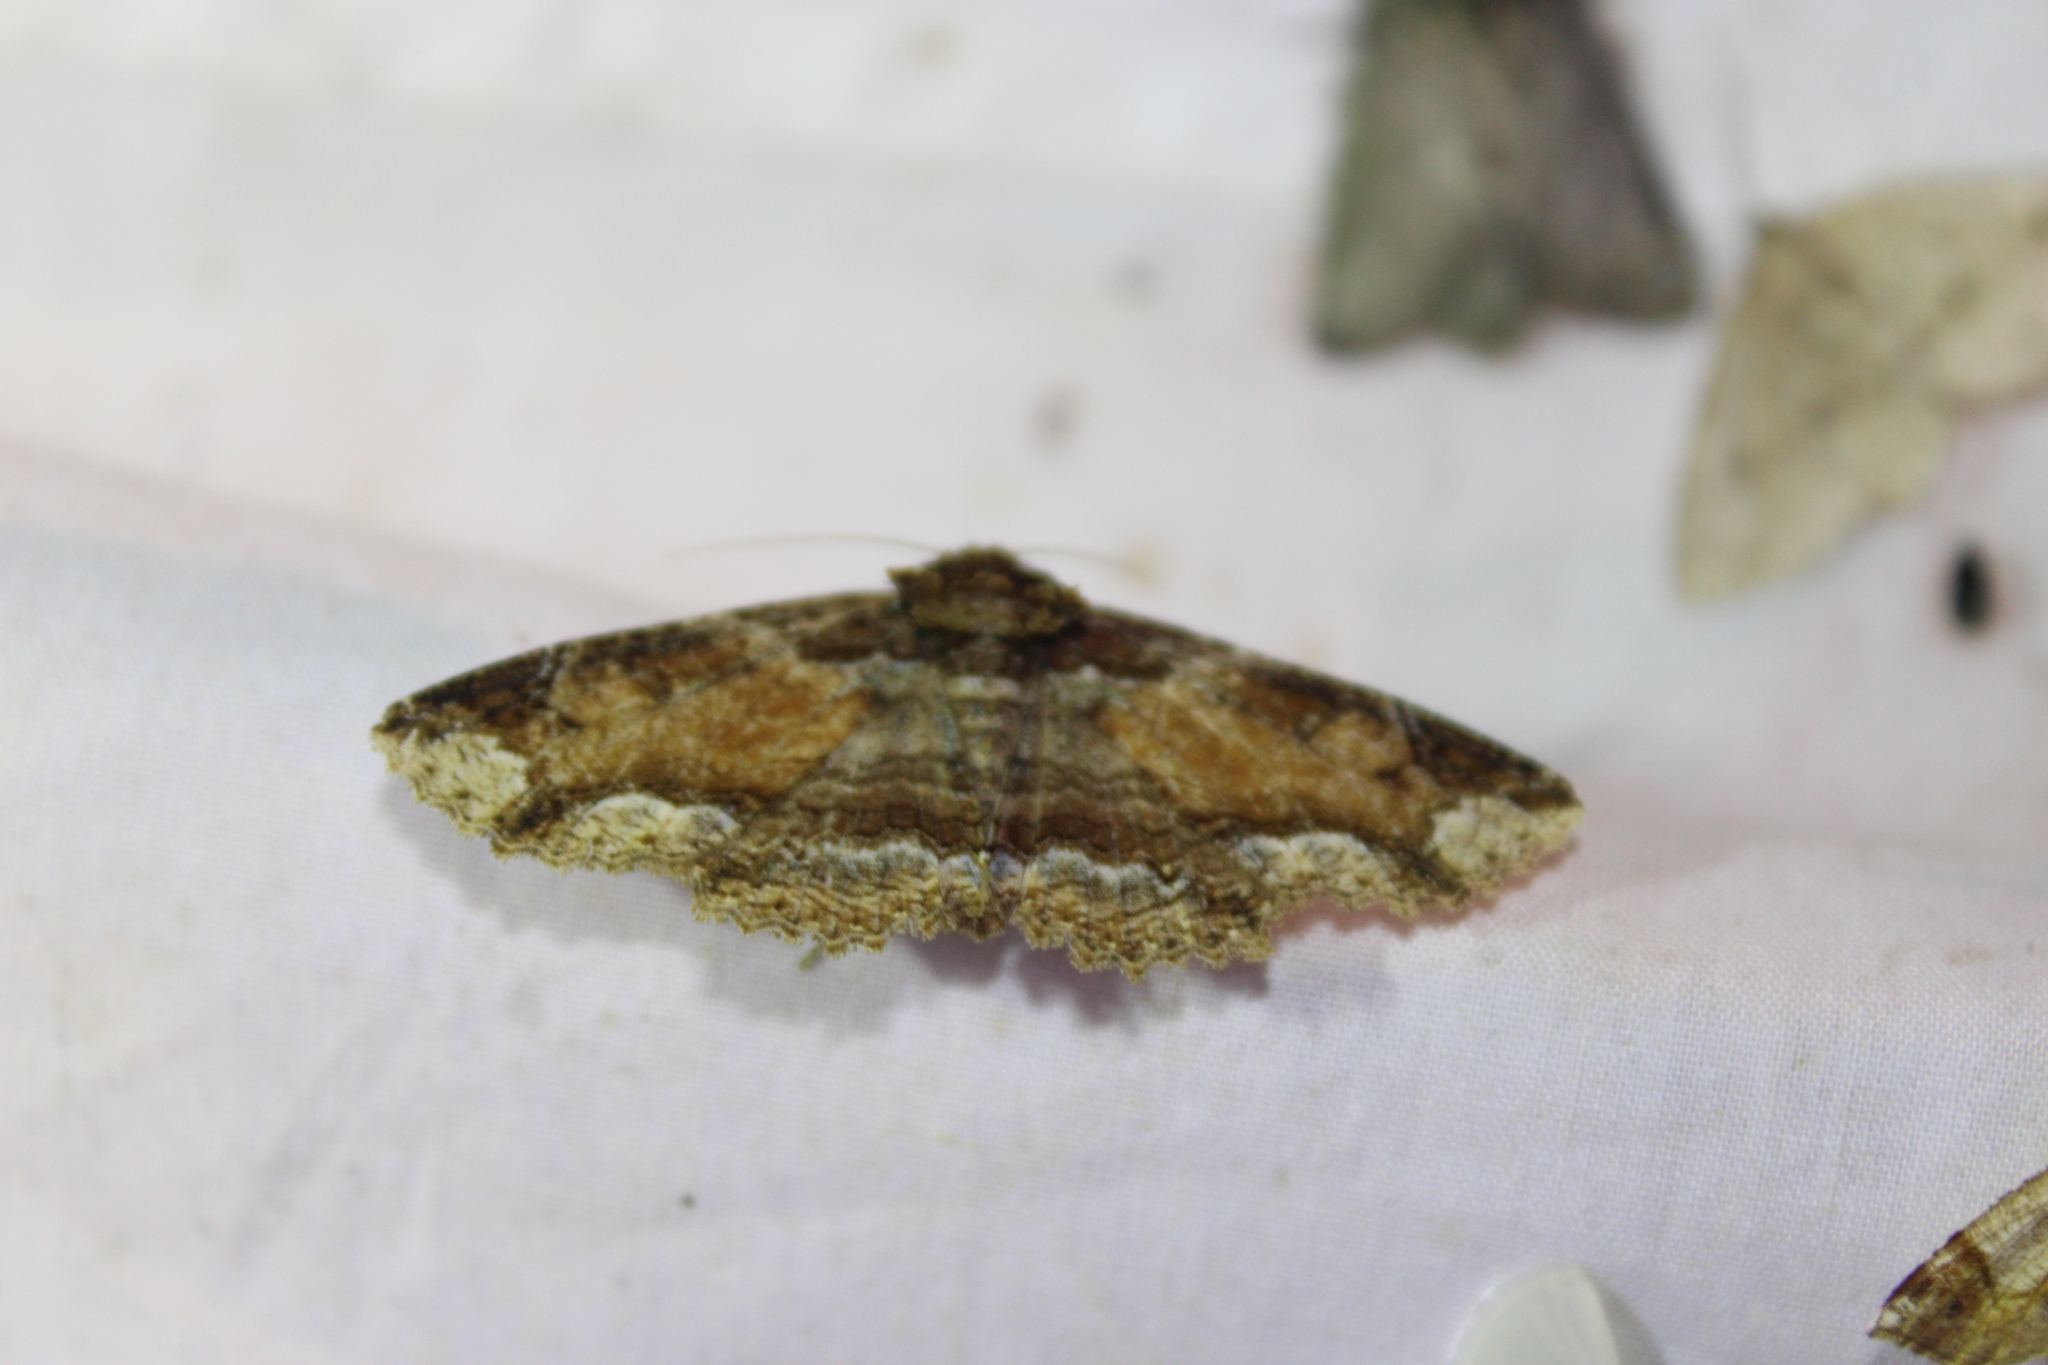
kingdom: Animalia
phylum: Arthropoda
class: Insecta
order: Lepidoptera
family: Erebidae
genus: Zale
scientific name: Zale minerea
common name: Colorful zale moth
